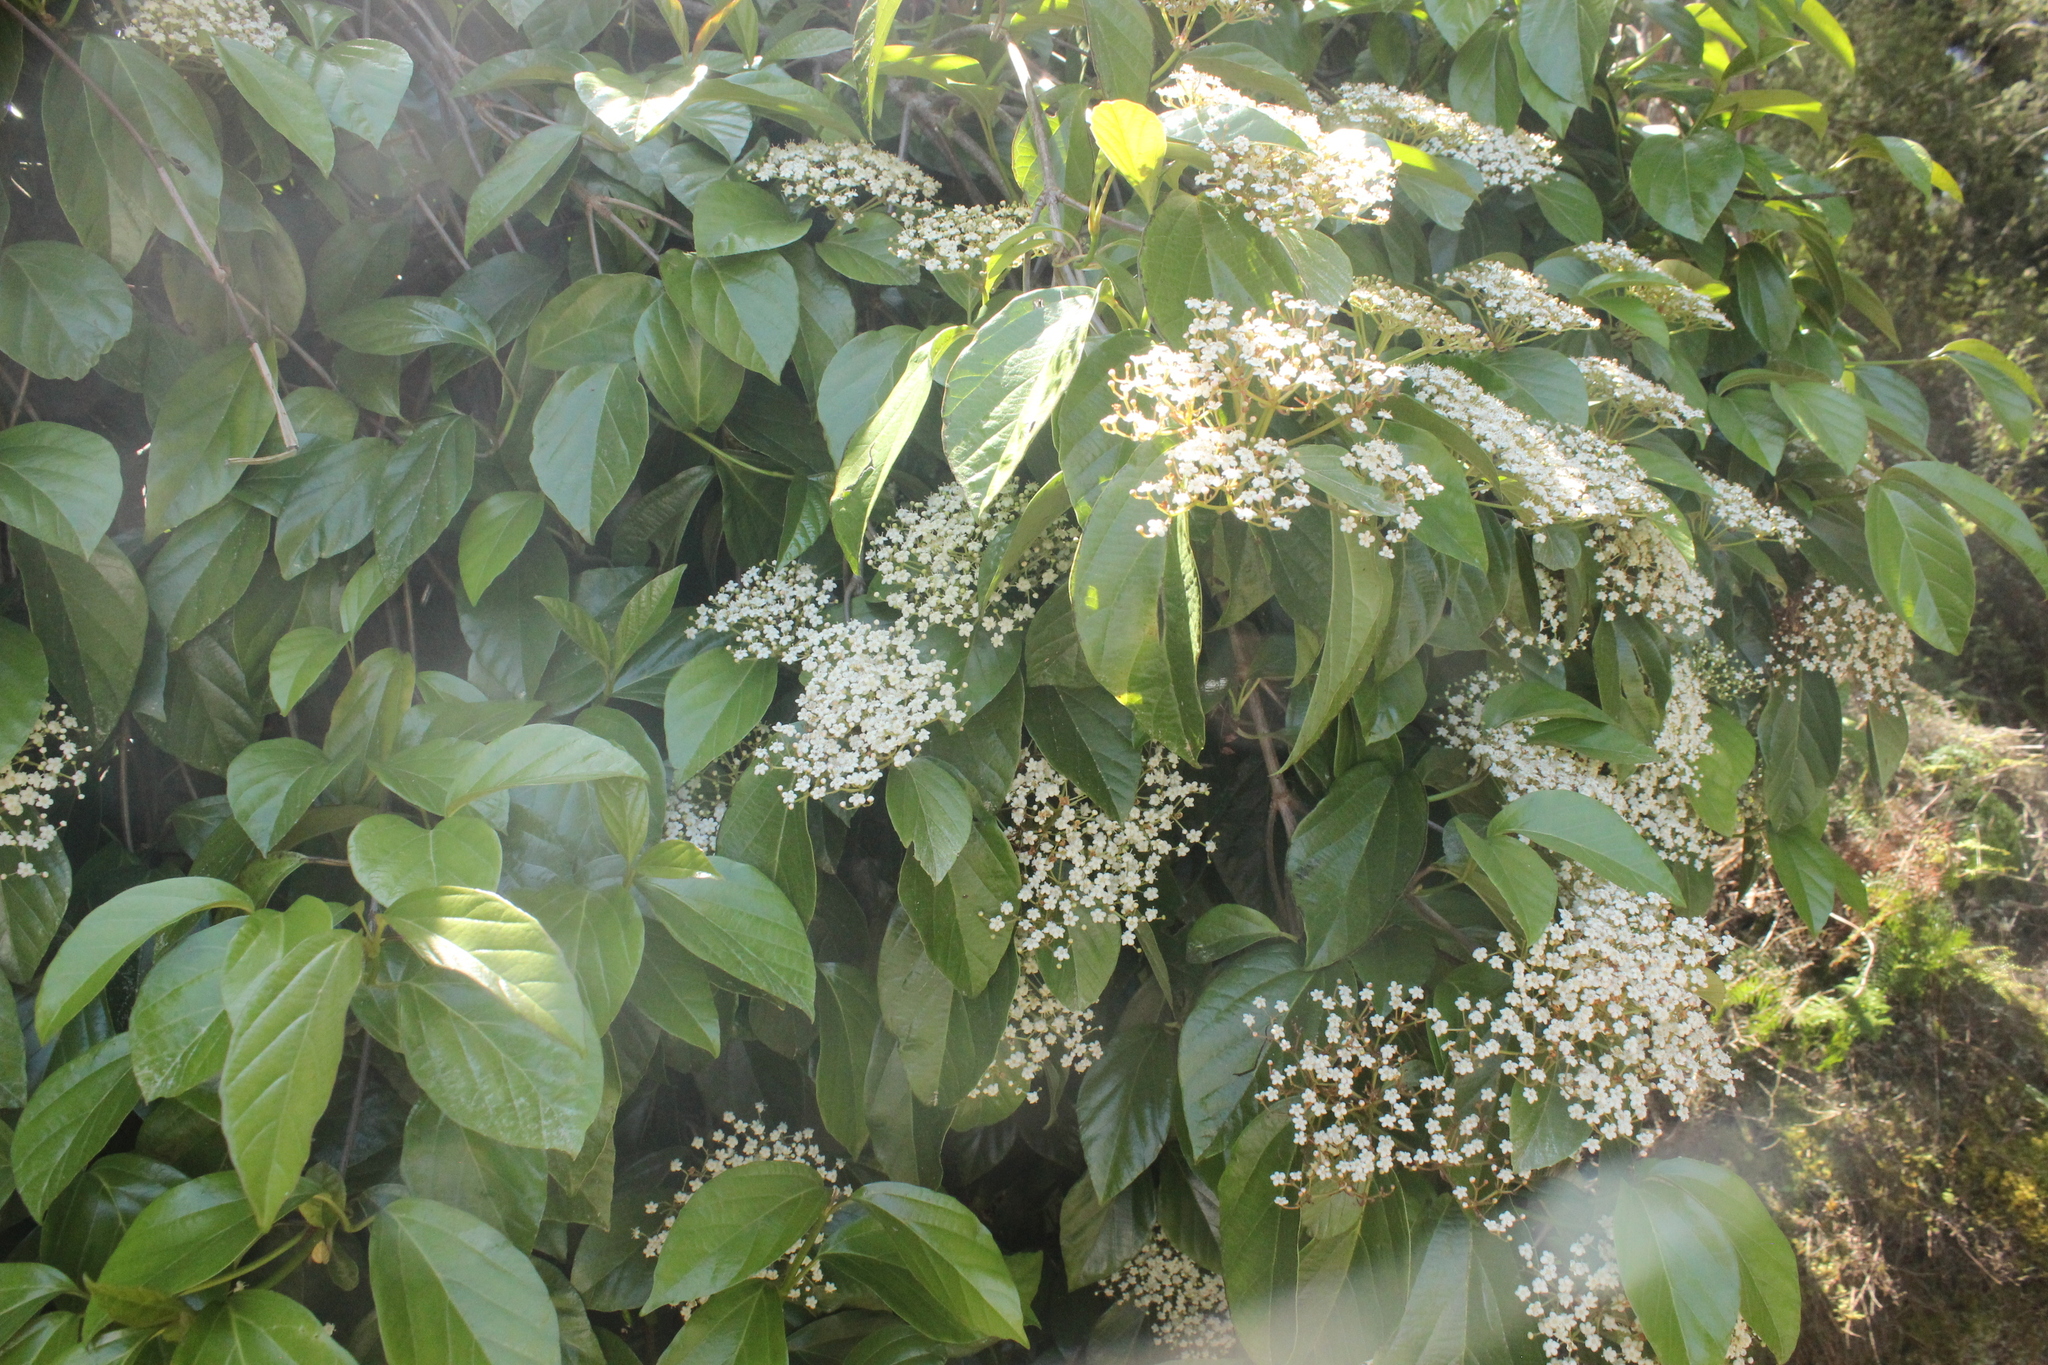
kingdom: Plantae
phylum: Tracheophyta
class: Magnoliopsida
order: Dipsacales
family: Viburnaceae
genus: Viburnum
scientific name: Viburnum japonicum
